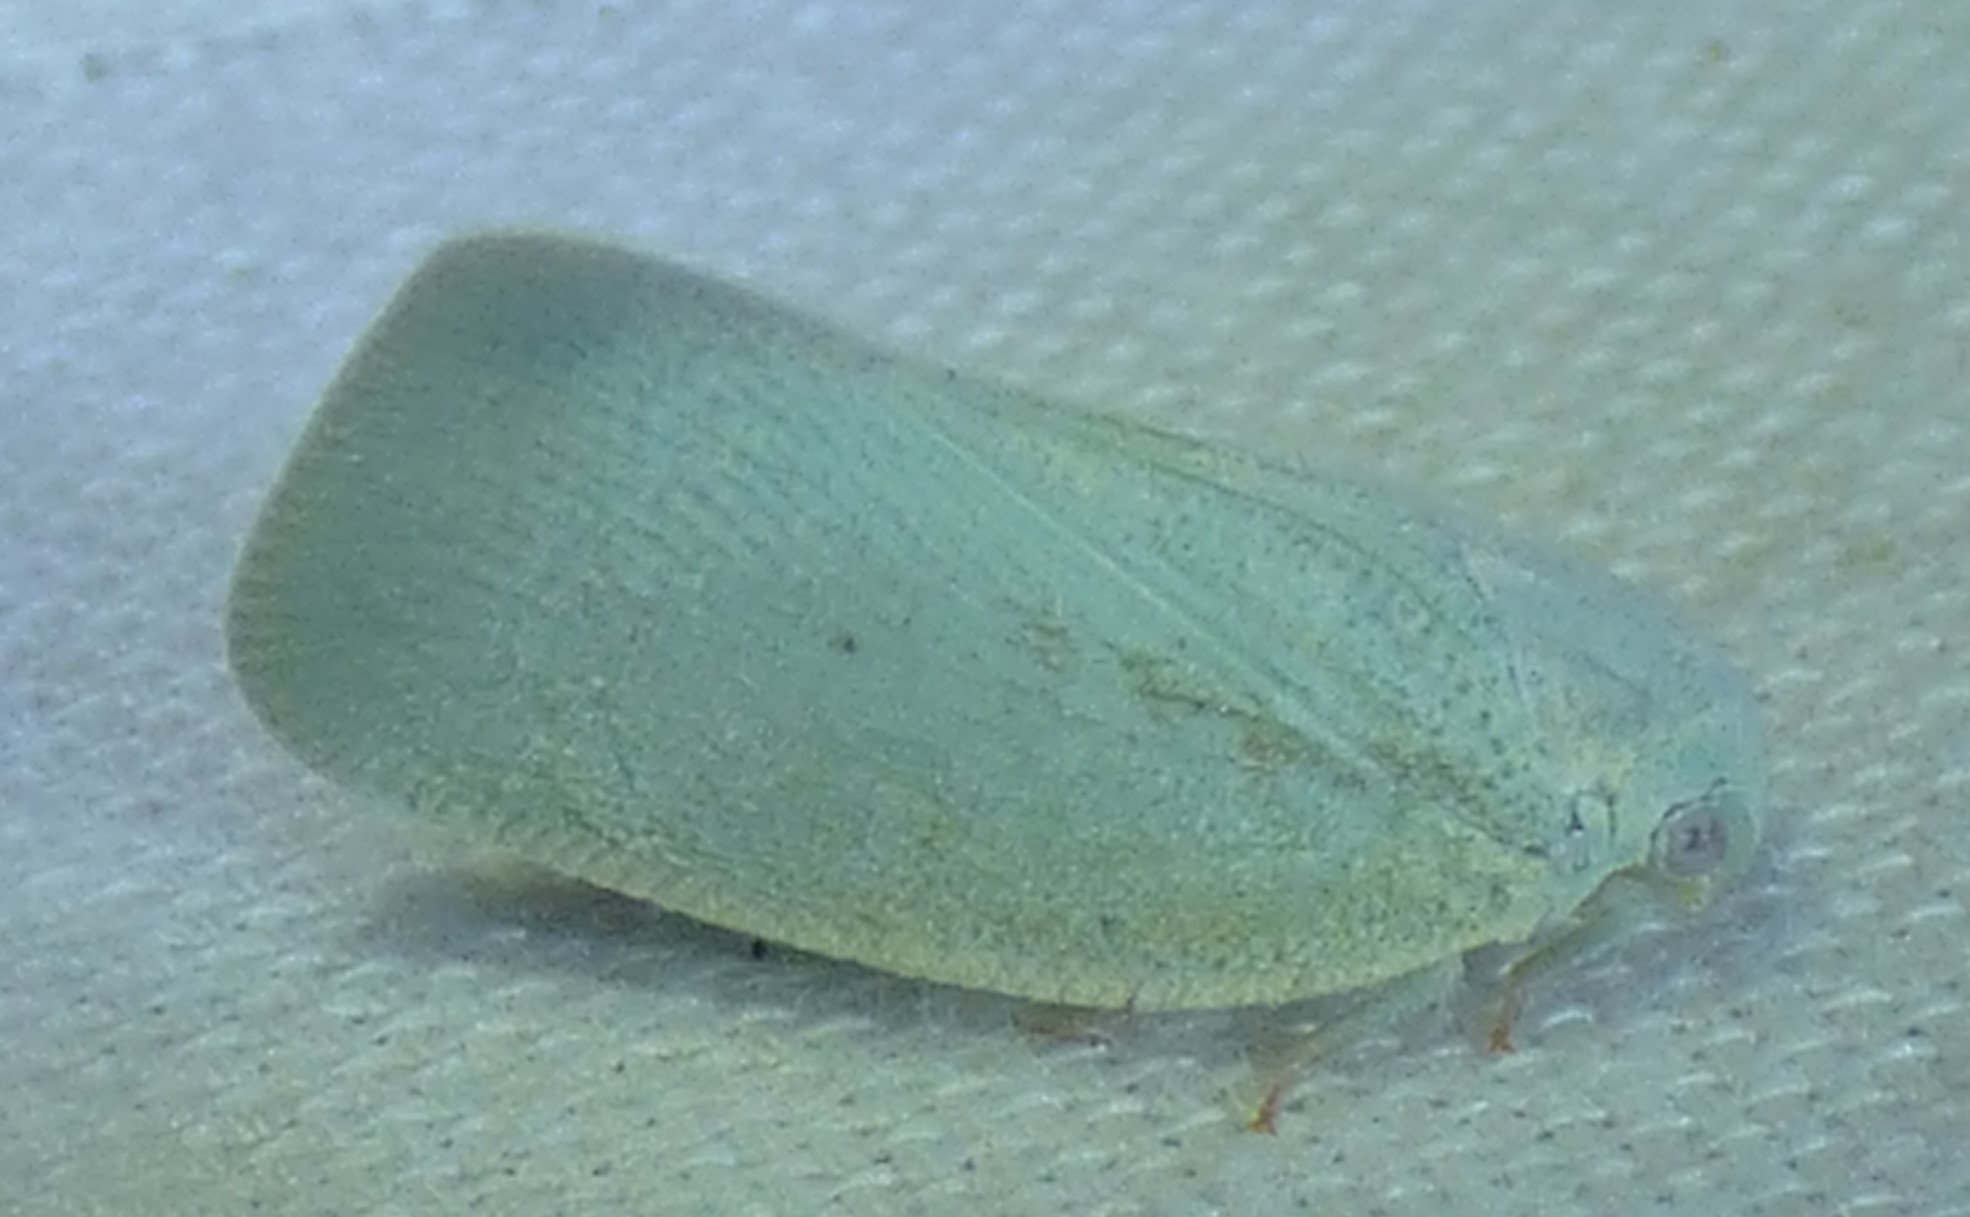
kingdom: Animalia
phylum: Arthropoda
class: Insecta
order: Hemiptera
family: Flatidae
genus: Flatormenis
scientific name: Flatormenis proxima
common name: Northern flatid planthopper
